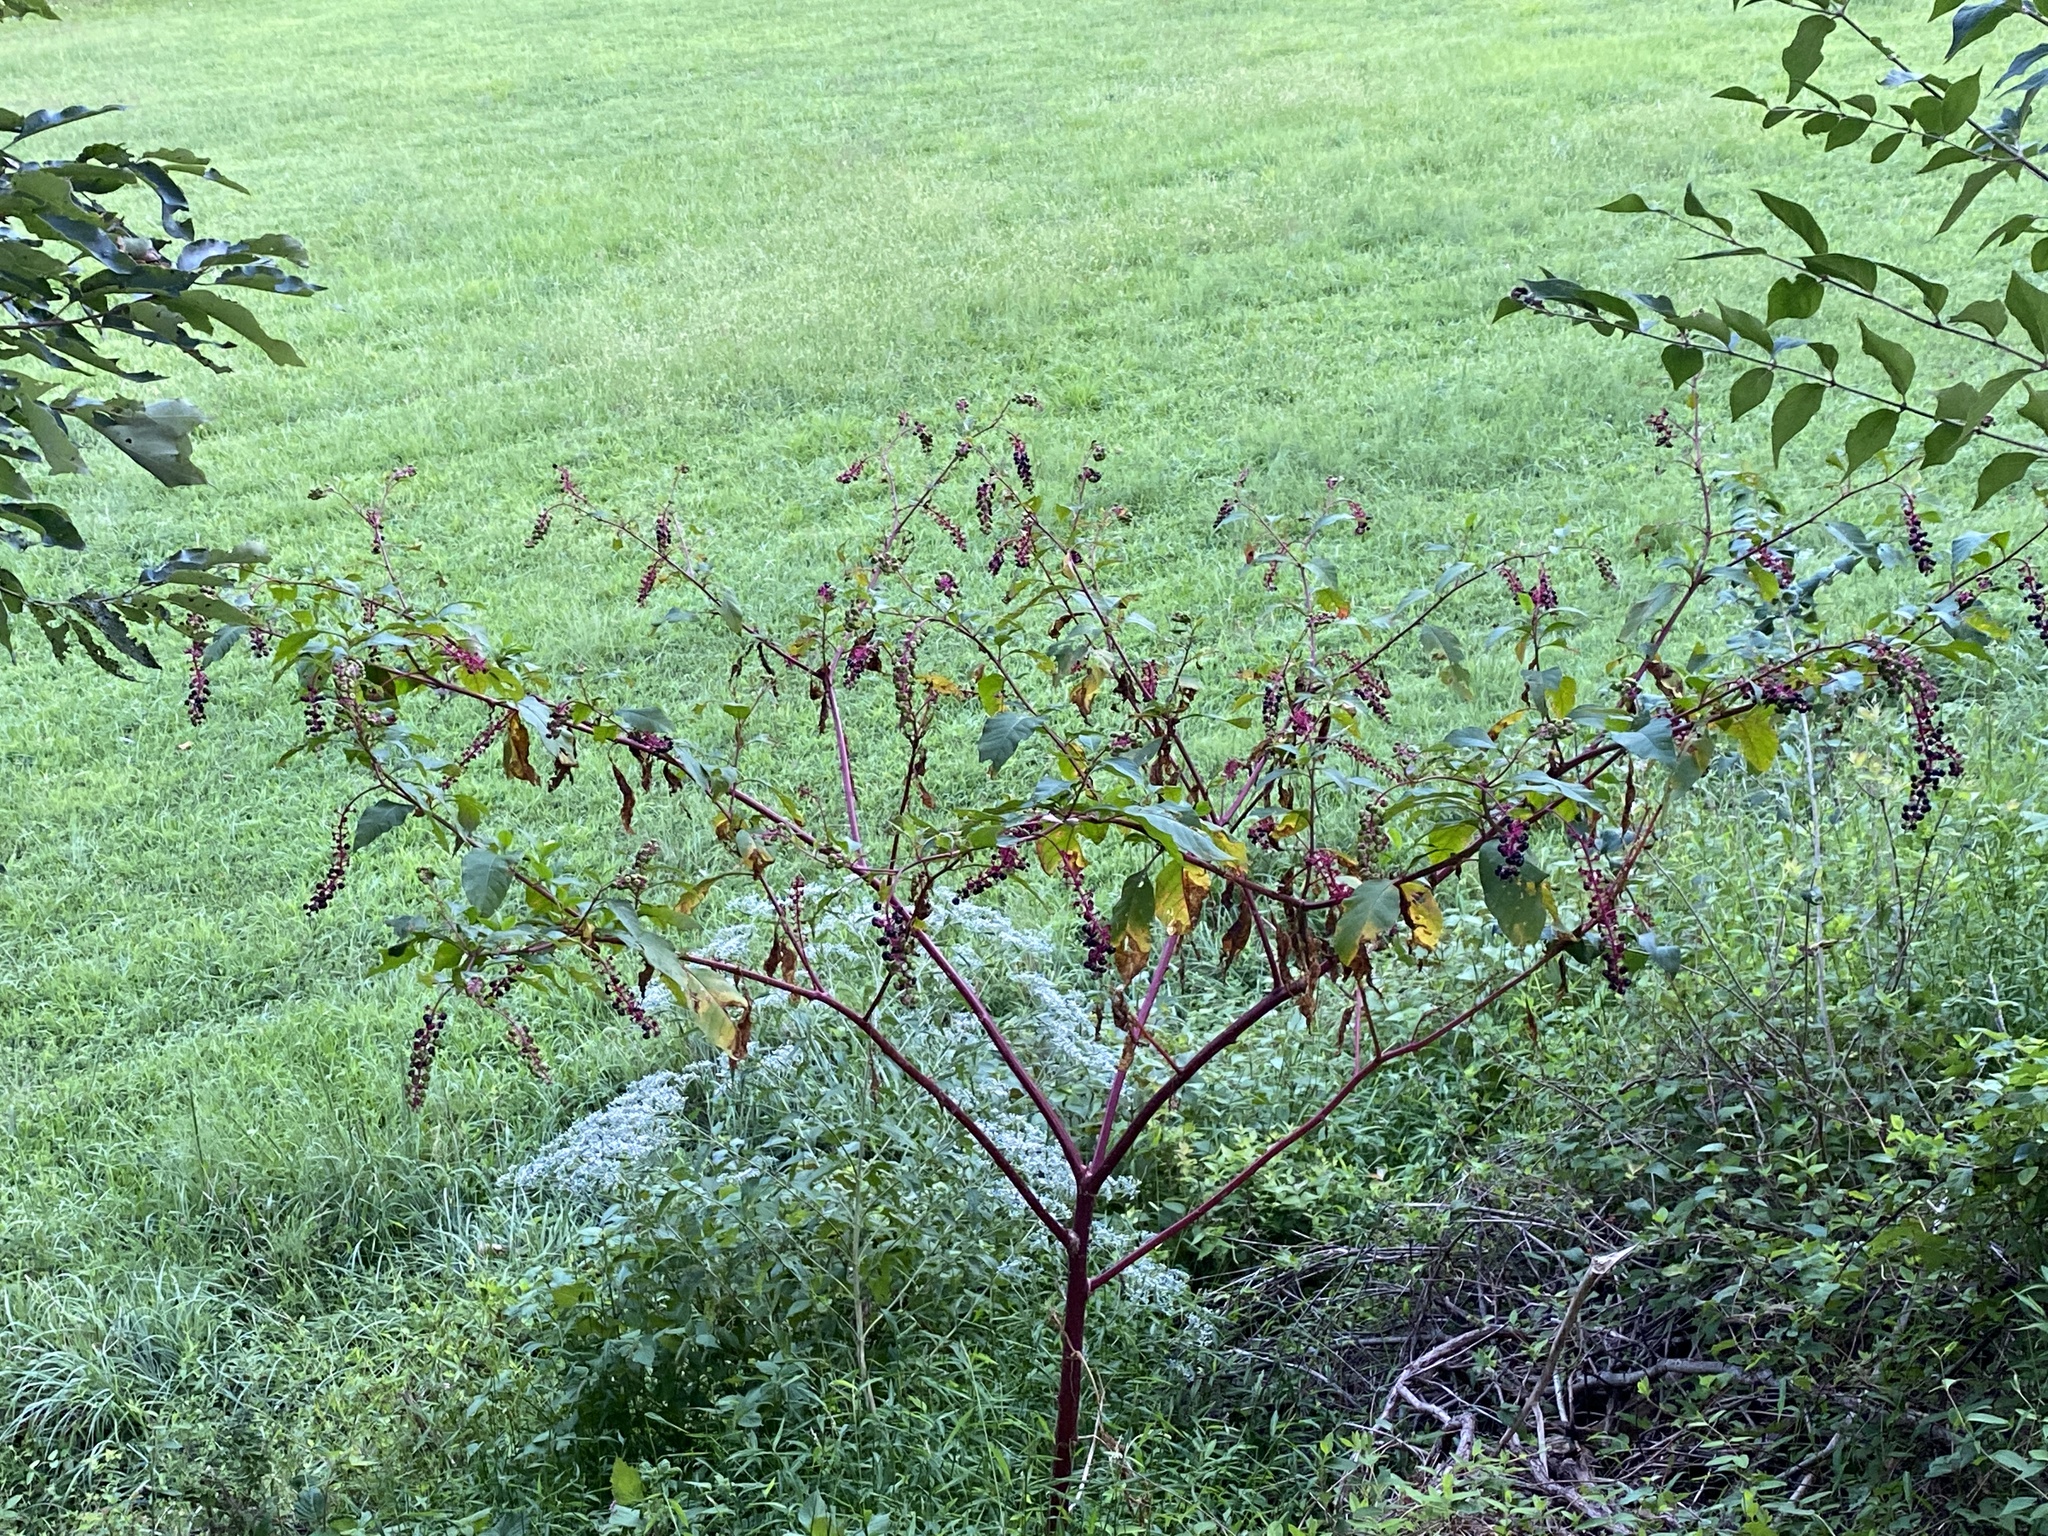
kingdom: Plantae
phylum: Tracheophyta
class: Magnoliopsida
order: Caryophyllales
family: Phytolaccaceae
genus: Phytolacca
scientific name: Phytolacca americana
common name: American pokeweed
